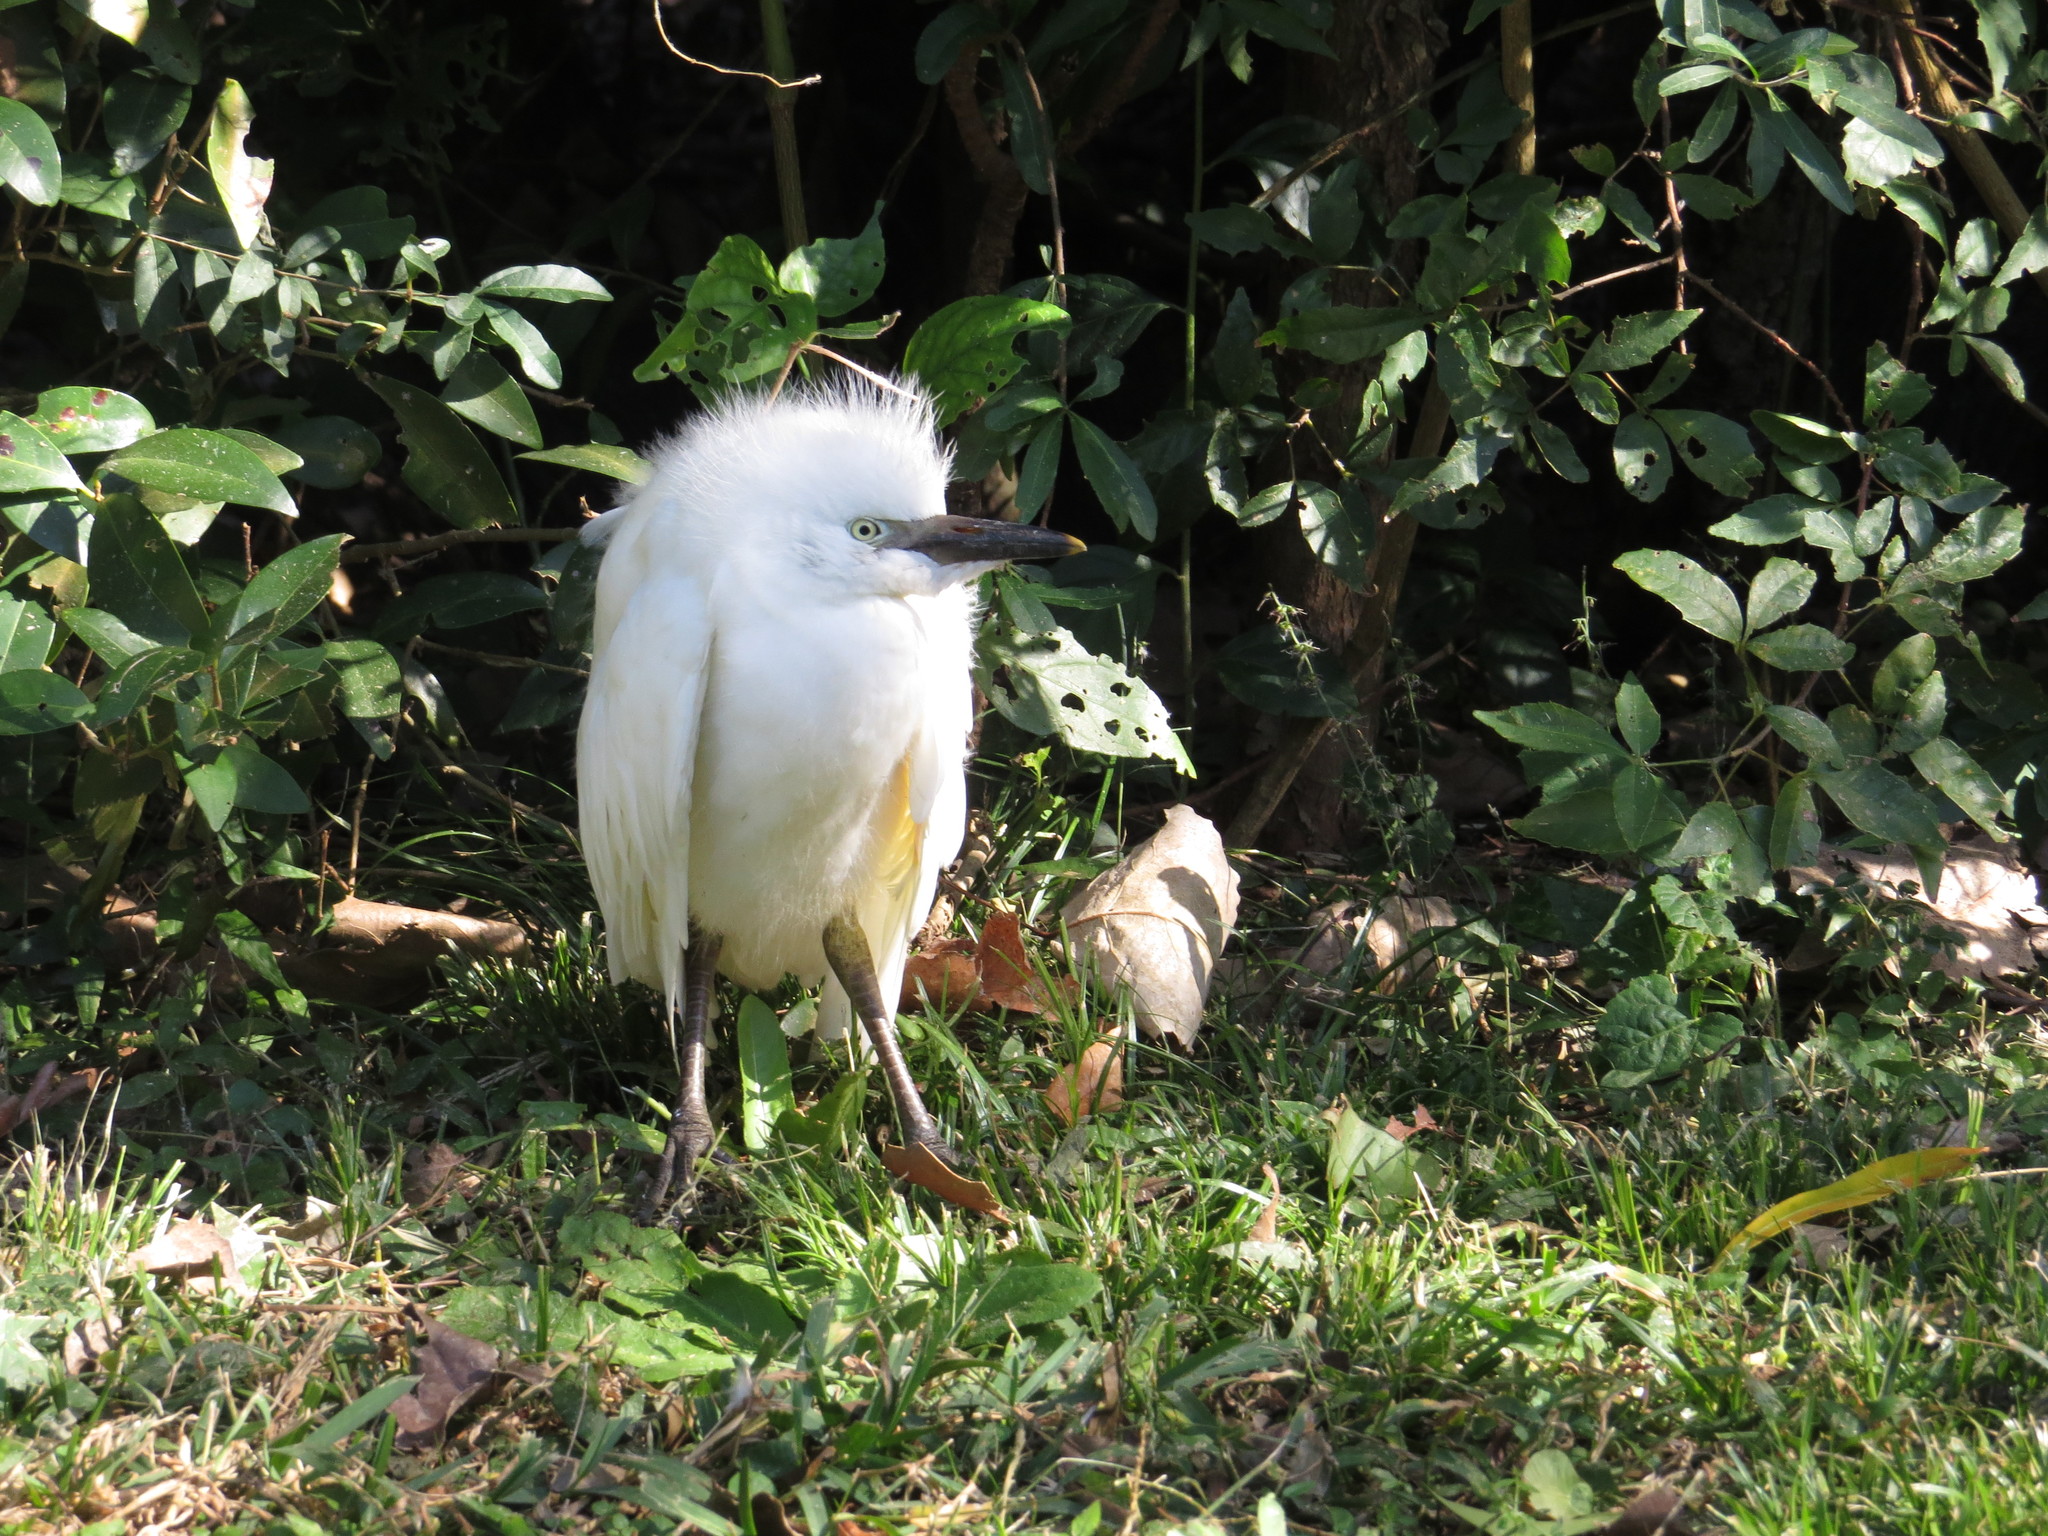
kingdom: Animalia
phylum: Chordata
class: Aves
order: Pelecaniformes
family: Ardeidae
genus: Egretta
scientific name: Egretta thula
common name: Snowy egret
